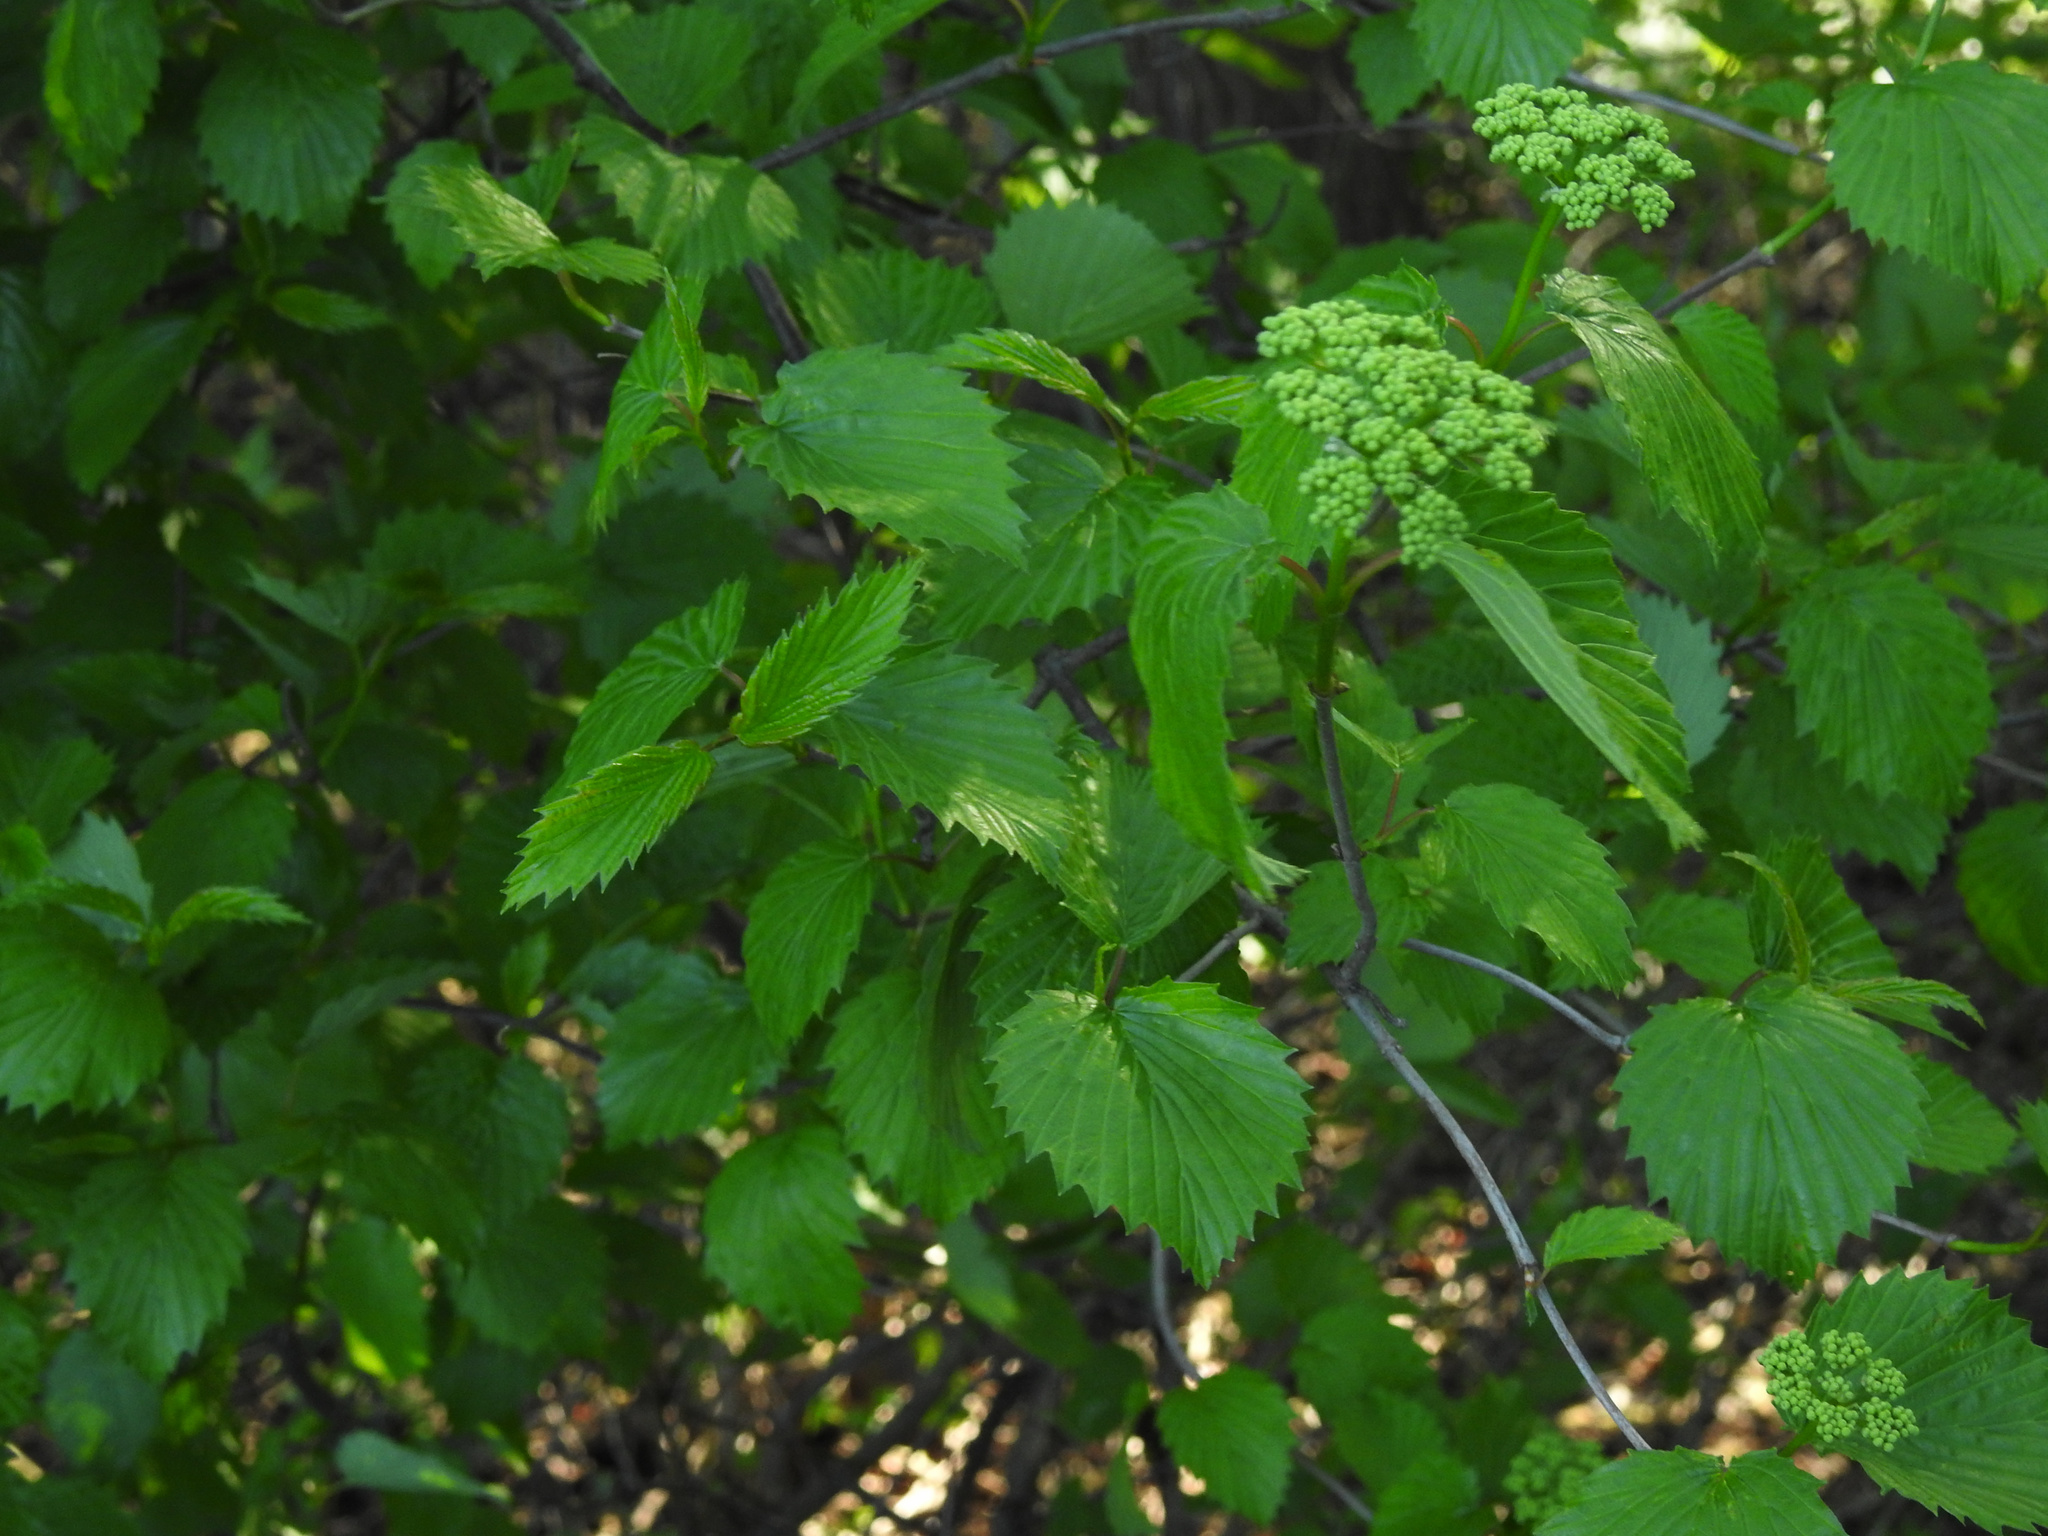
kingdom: Plantae
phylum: Tracheophyta
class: Magnoliopsida
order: Dipsacales
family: Viburnaceae
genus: Viburnum
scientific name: Viburnum dentatum
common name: Arrow-wood
